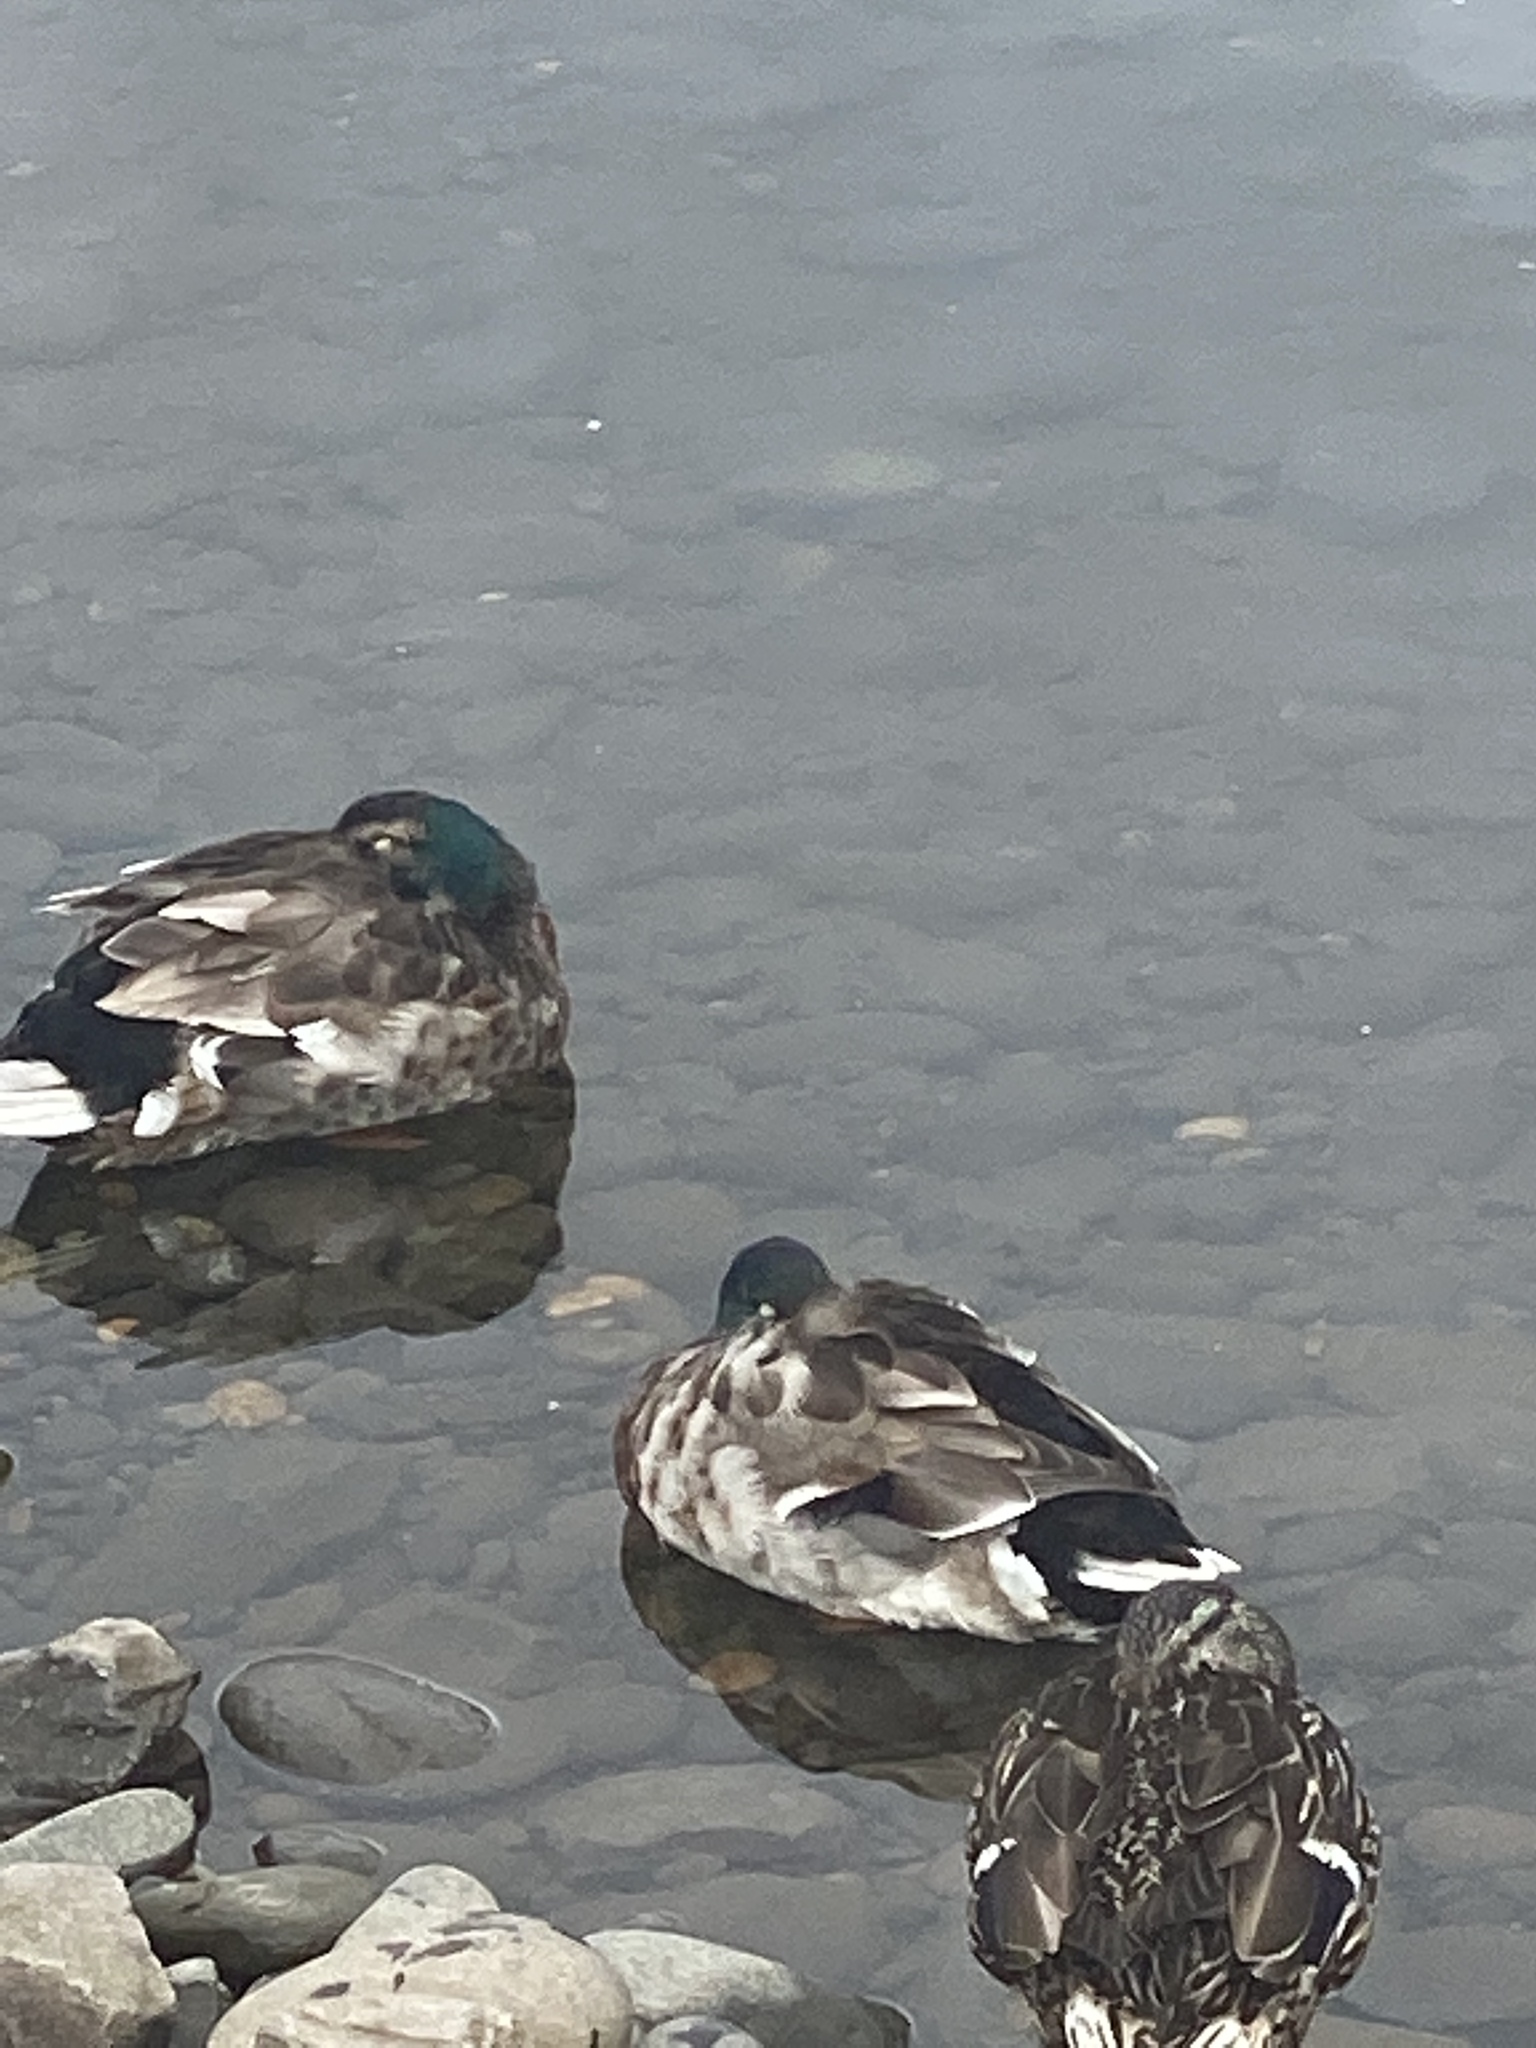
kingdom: Animalia
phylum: Chordata
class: Aves
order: Anseriformes
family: Anatidae
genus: Anas
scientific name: Anas platyrhynchos
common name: Mallard
